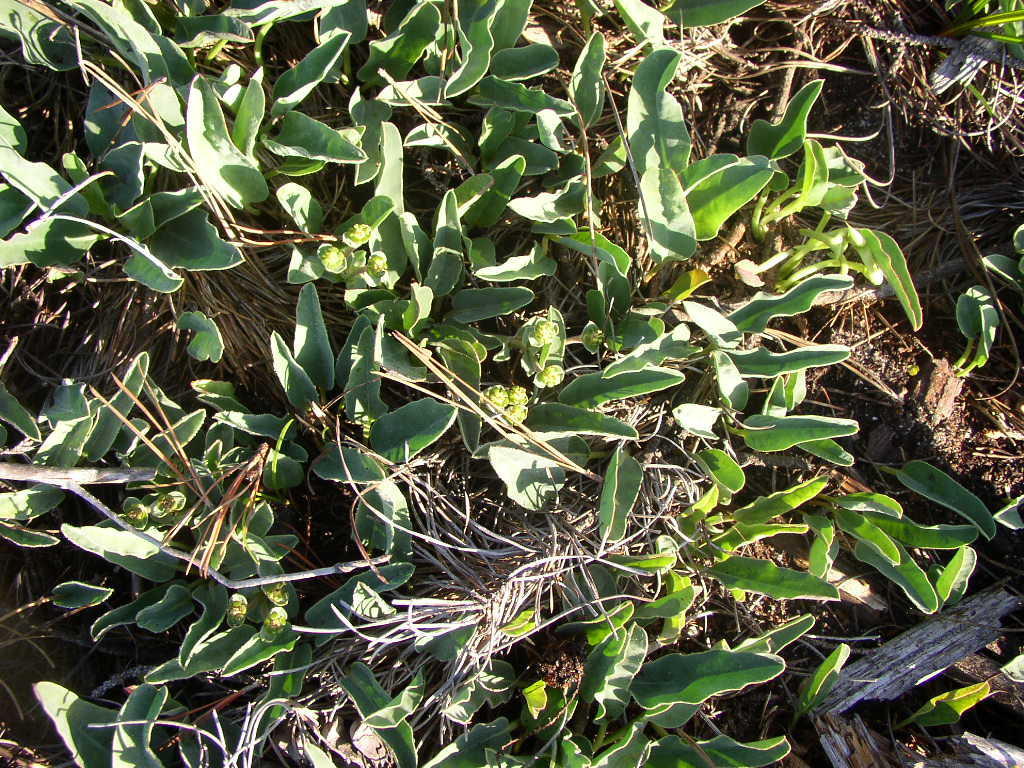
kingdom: Plantae
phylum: Tracheophyta
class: Magnoliopsida
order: Malpighiales
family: Euphorbiaceae
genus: Euphorbia
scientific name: Euphorbia tuberosa
